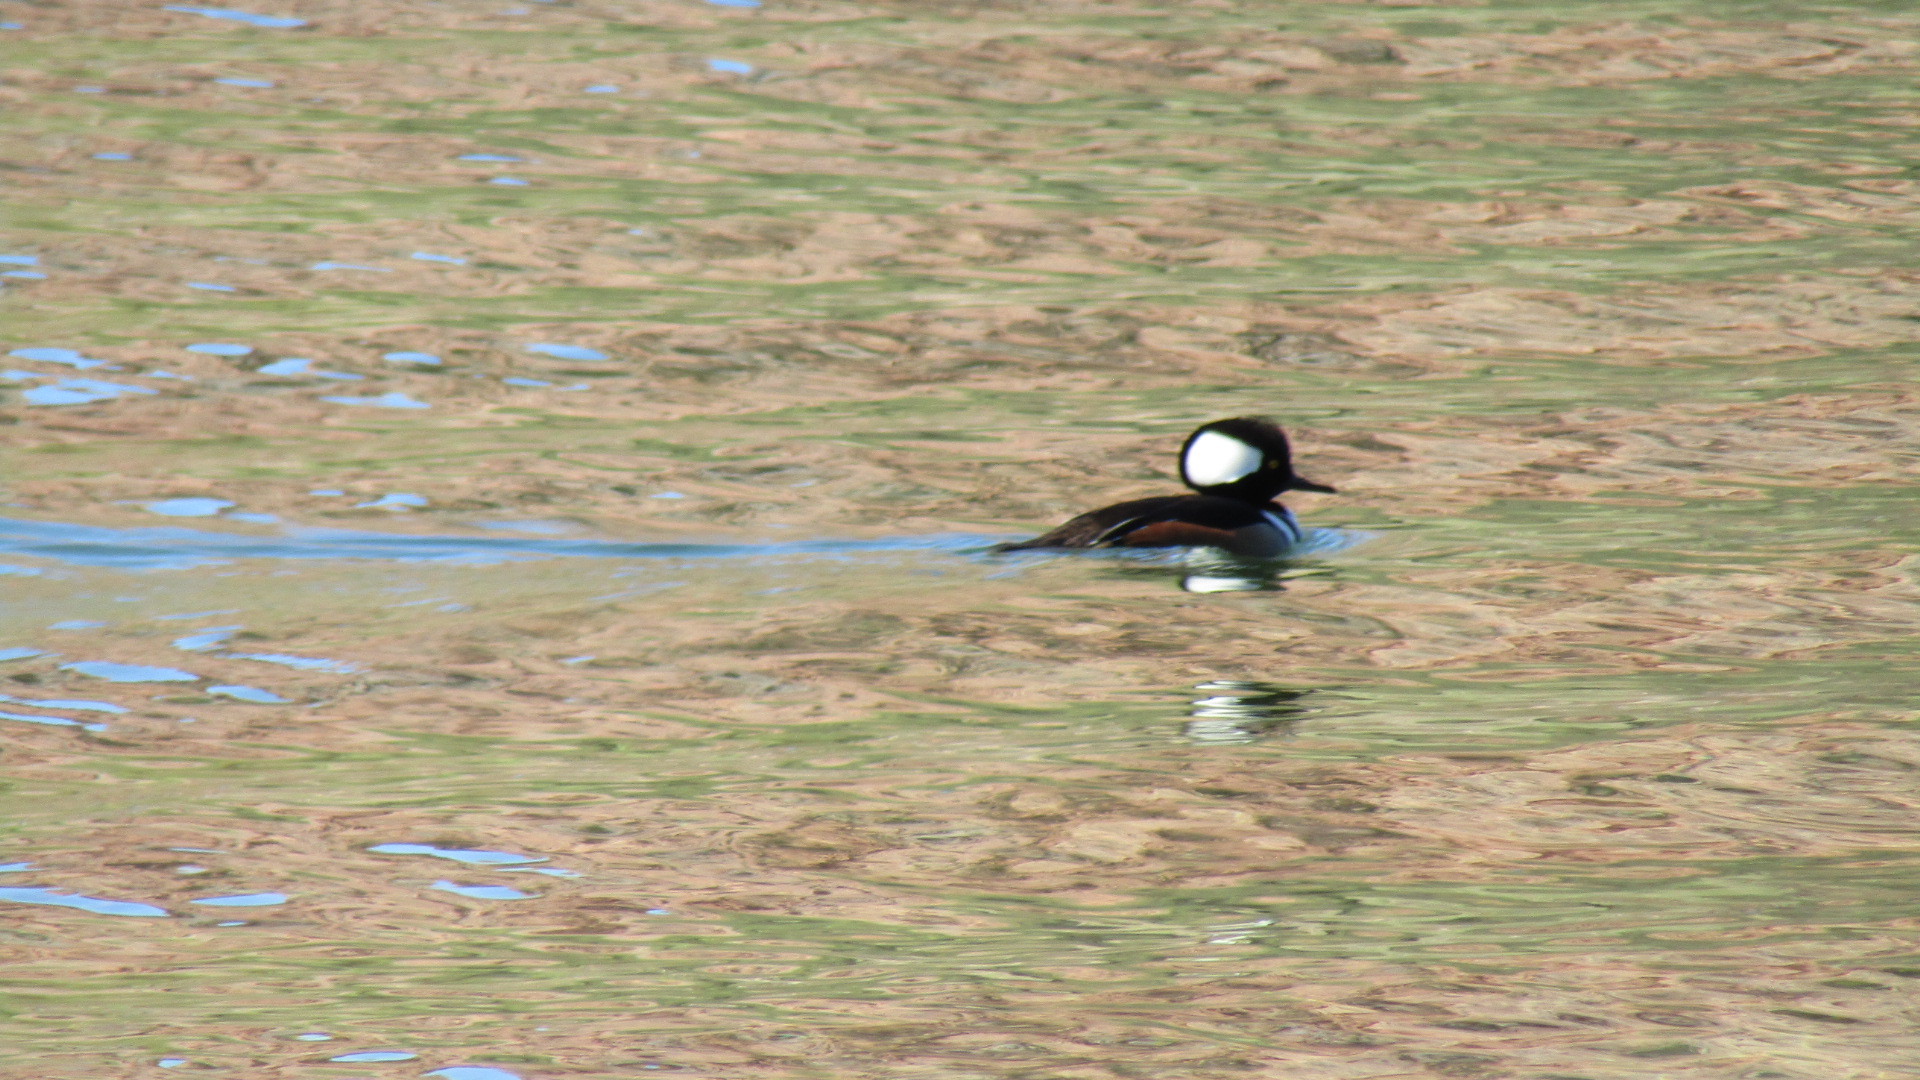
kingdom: Animalia
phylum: Chordata
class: Aves
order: Anseriformes
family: Anatidae
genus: Lophodytes
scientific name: Lophodytes cucullatus
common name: Hooded merganser
